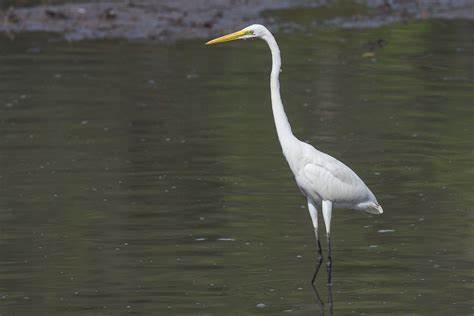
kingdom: Animalia
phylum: Chordata
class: Aves
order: Pelecaniformes
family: Ardeidae
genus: Ardea
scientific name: Ardea alba
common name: Great egret
